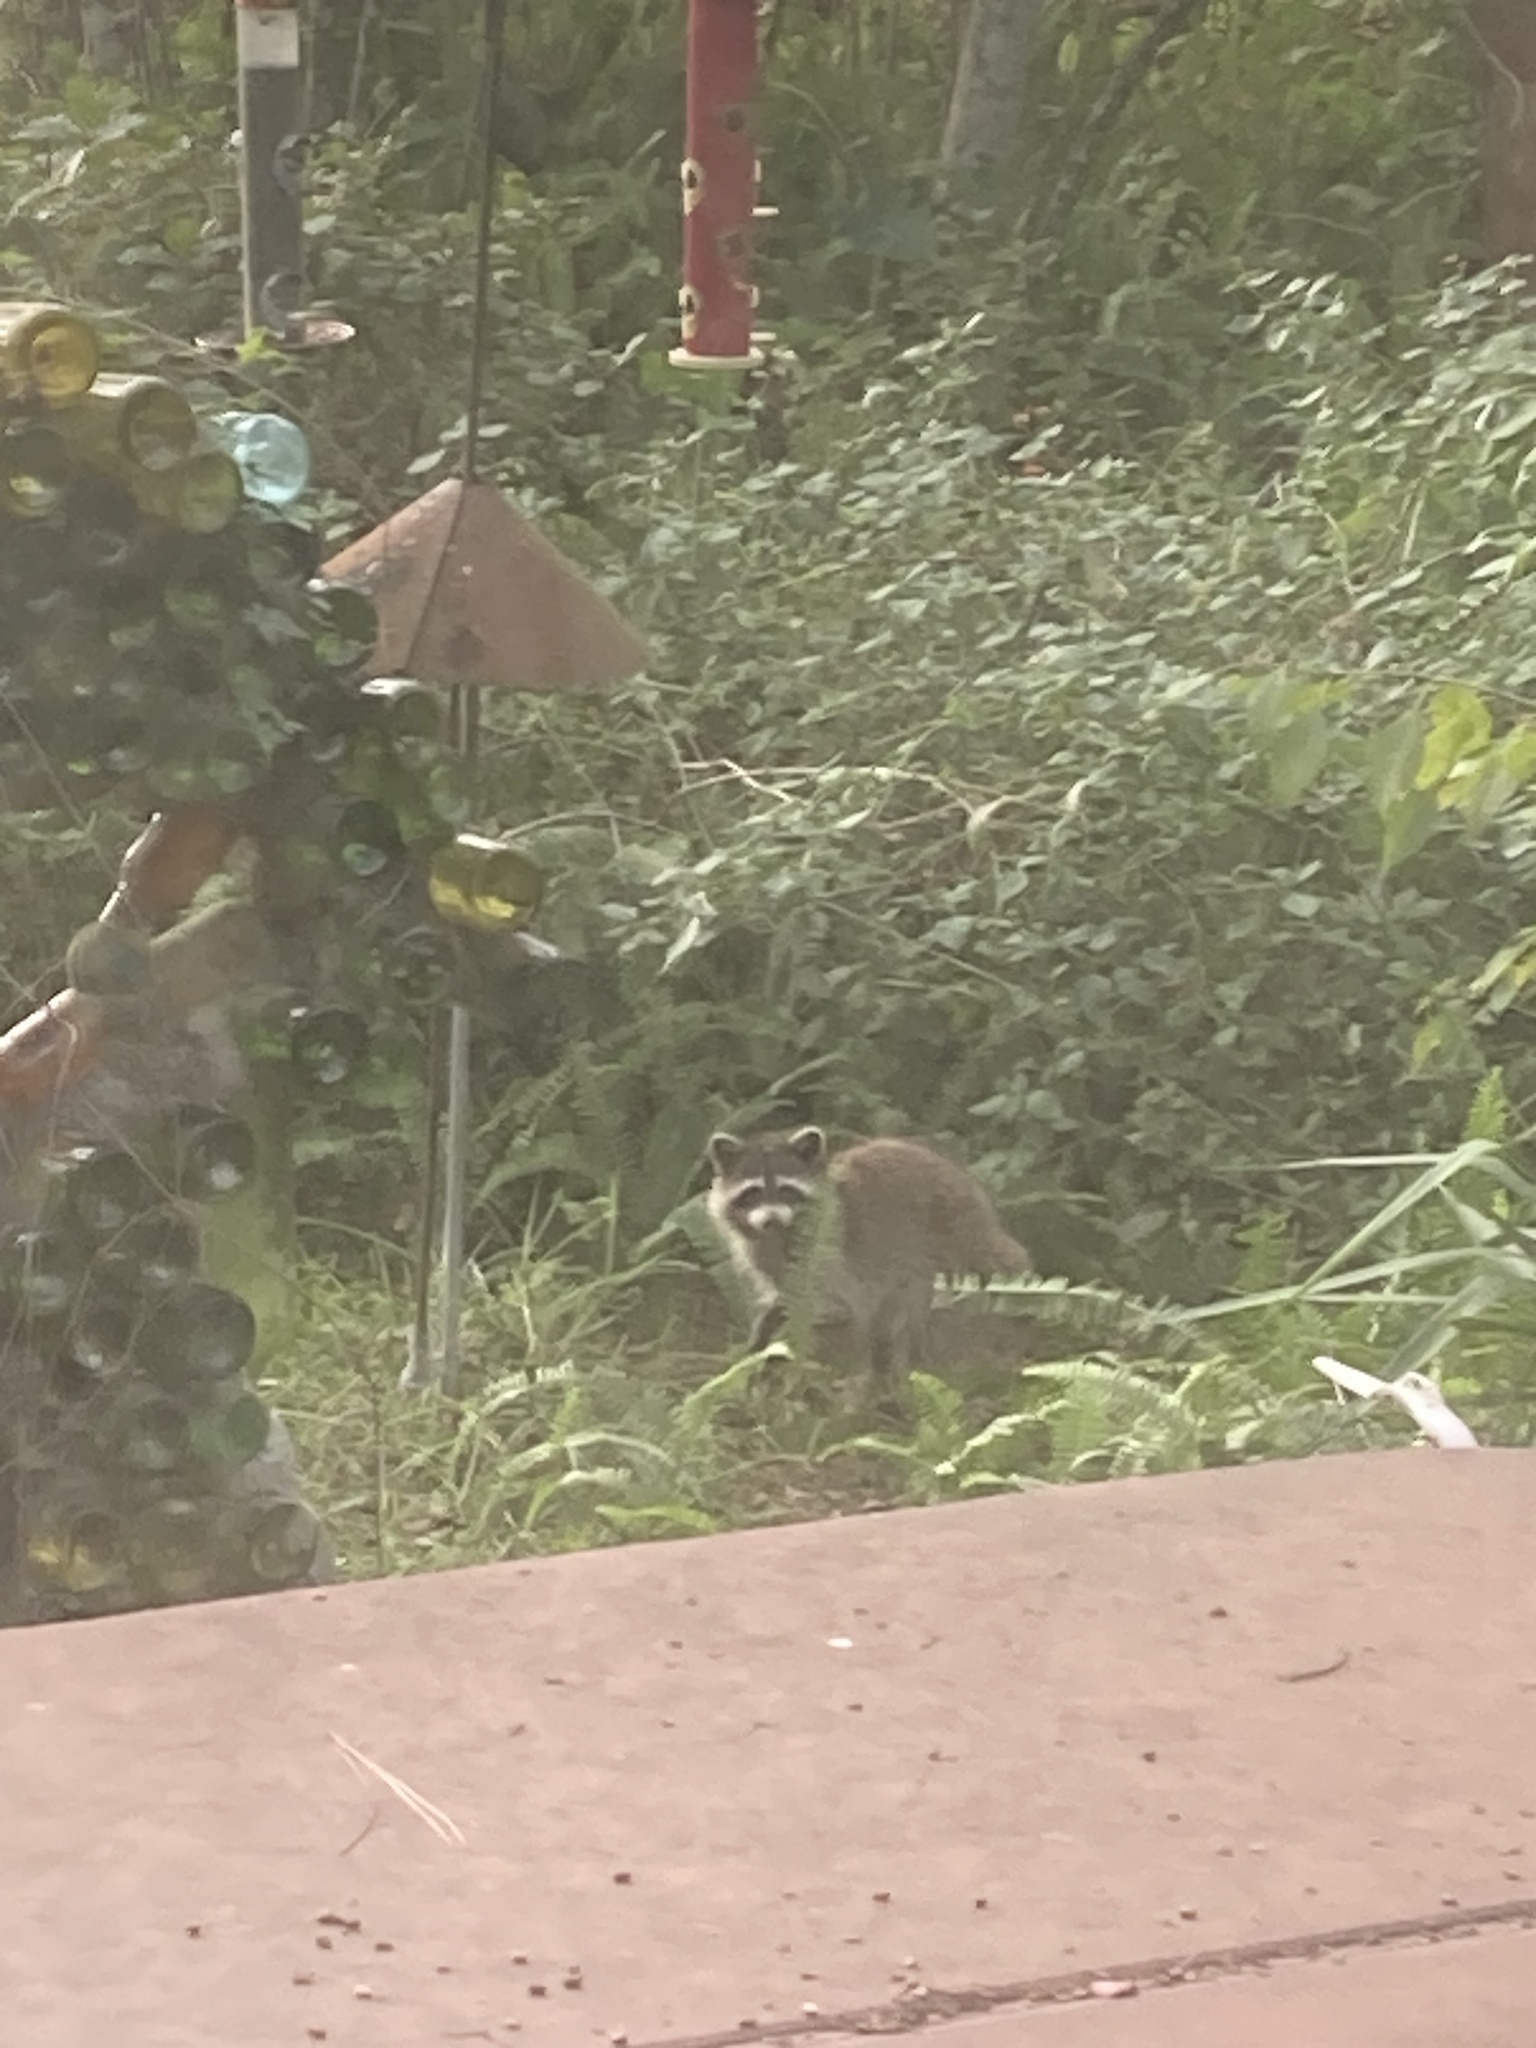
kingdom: Animalia
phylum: Chordata
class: Mammalia
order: Carnivora
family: Procyonidae
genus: Procyon
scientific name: Procyon lotor
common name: Raccoon
